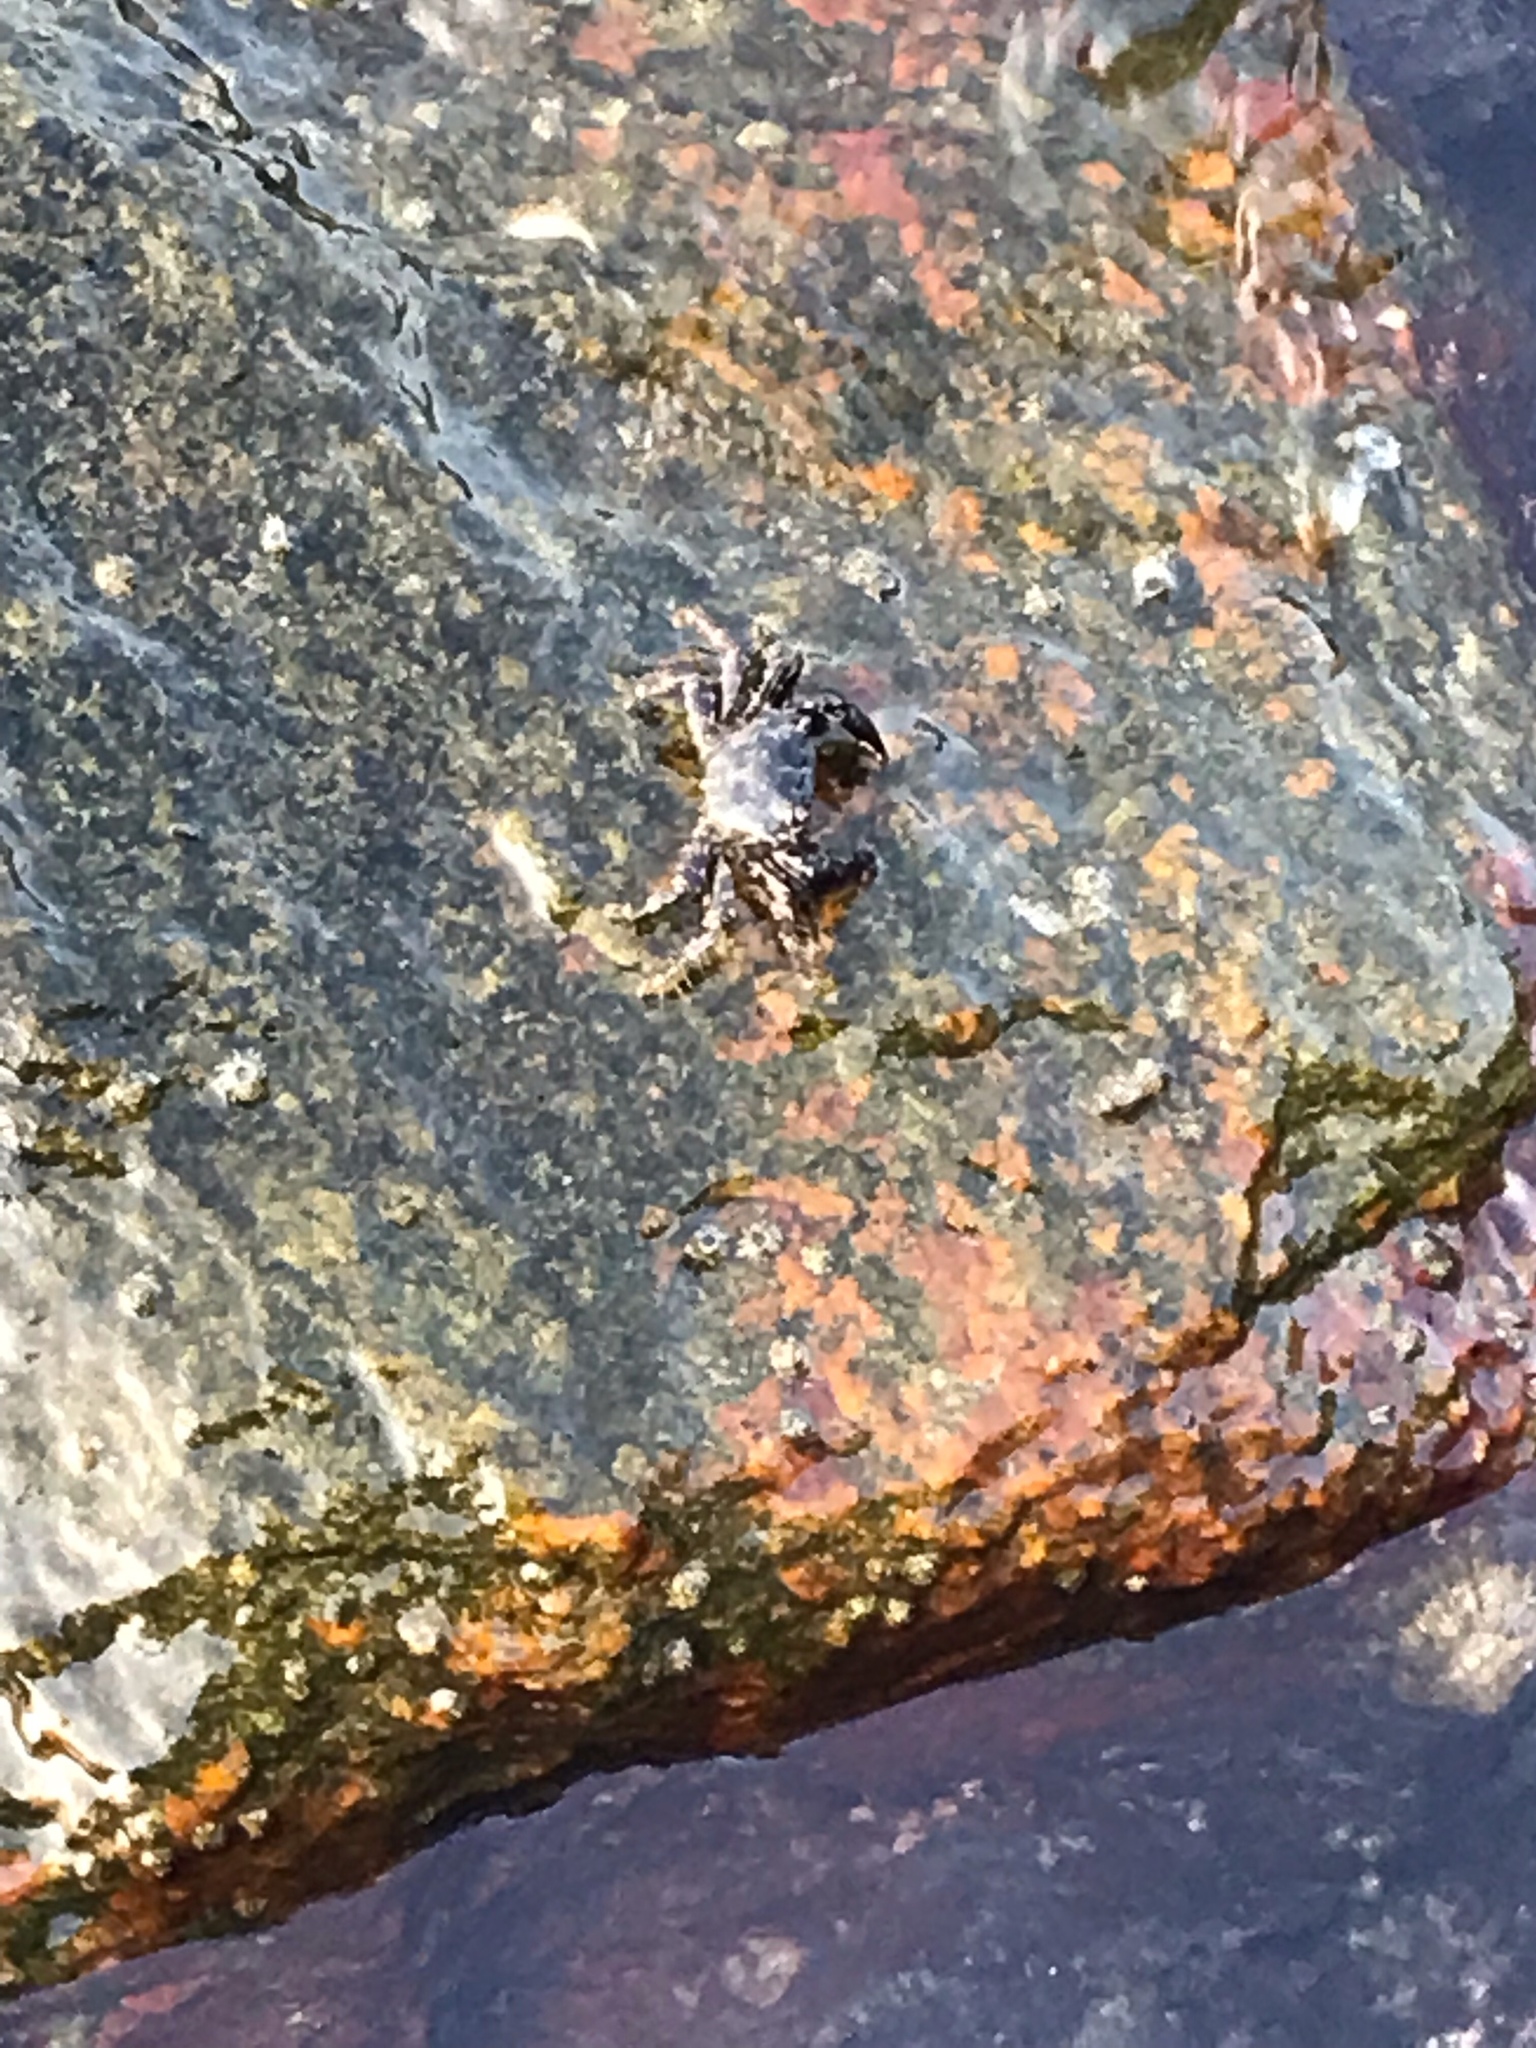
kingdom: Animalia
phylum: Arthropoda
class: Malacostraca
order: Decapoda
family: Grapsidae
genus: Pachygrapsus
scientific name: Pachygrapsus marmoratus
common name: Marbled rock crab
